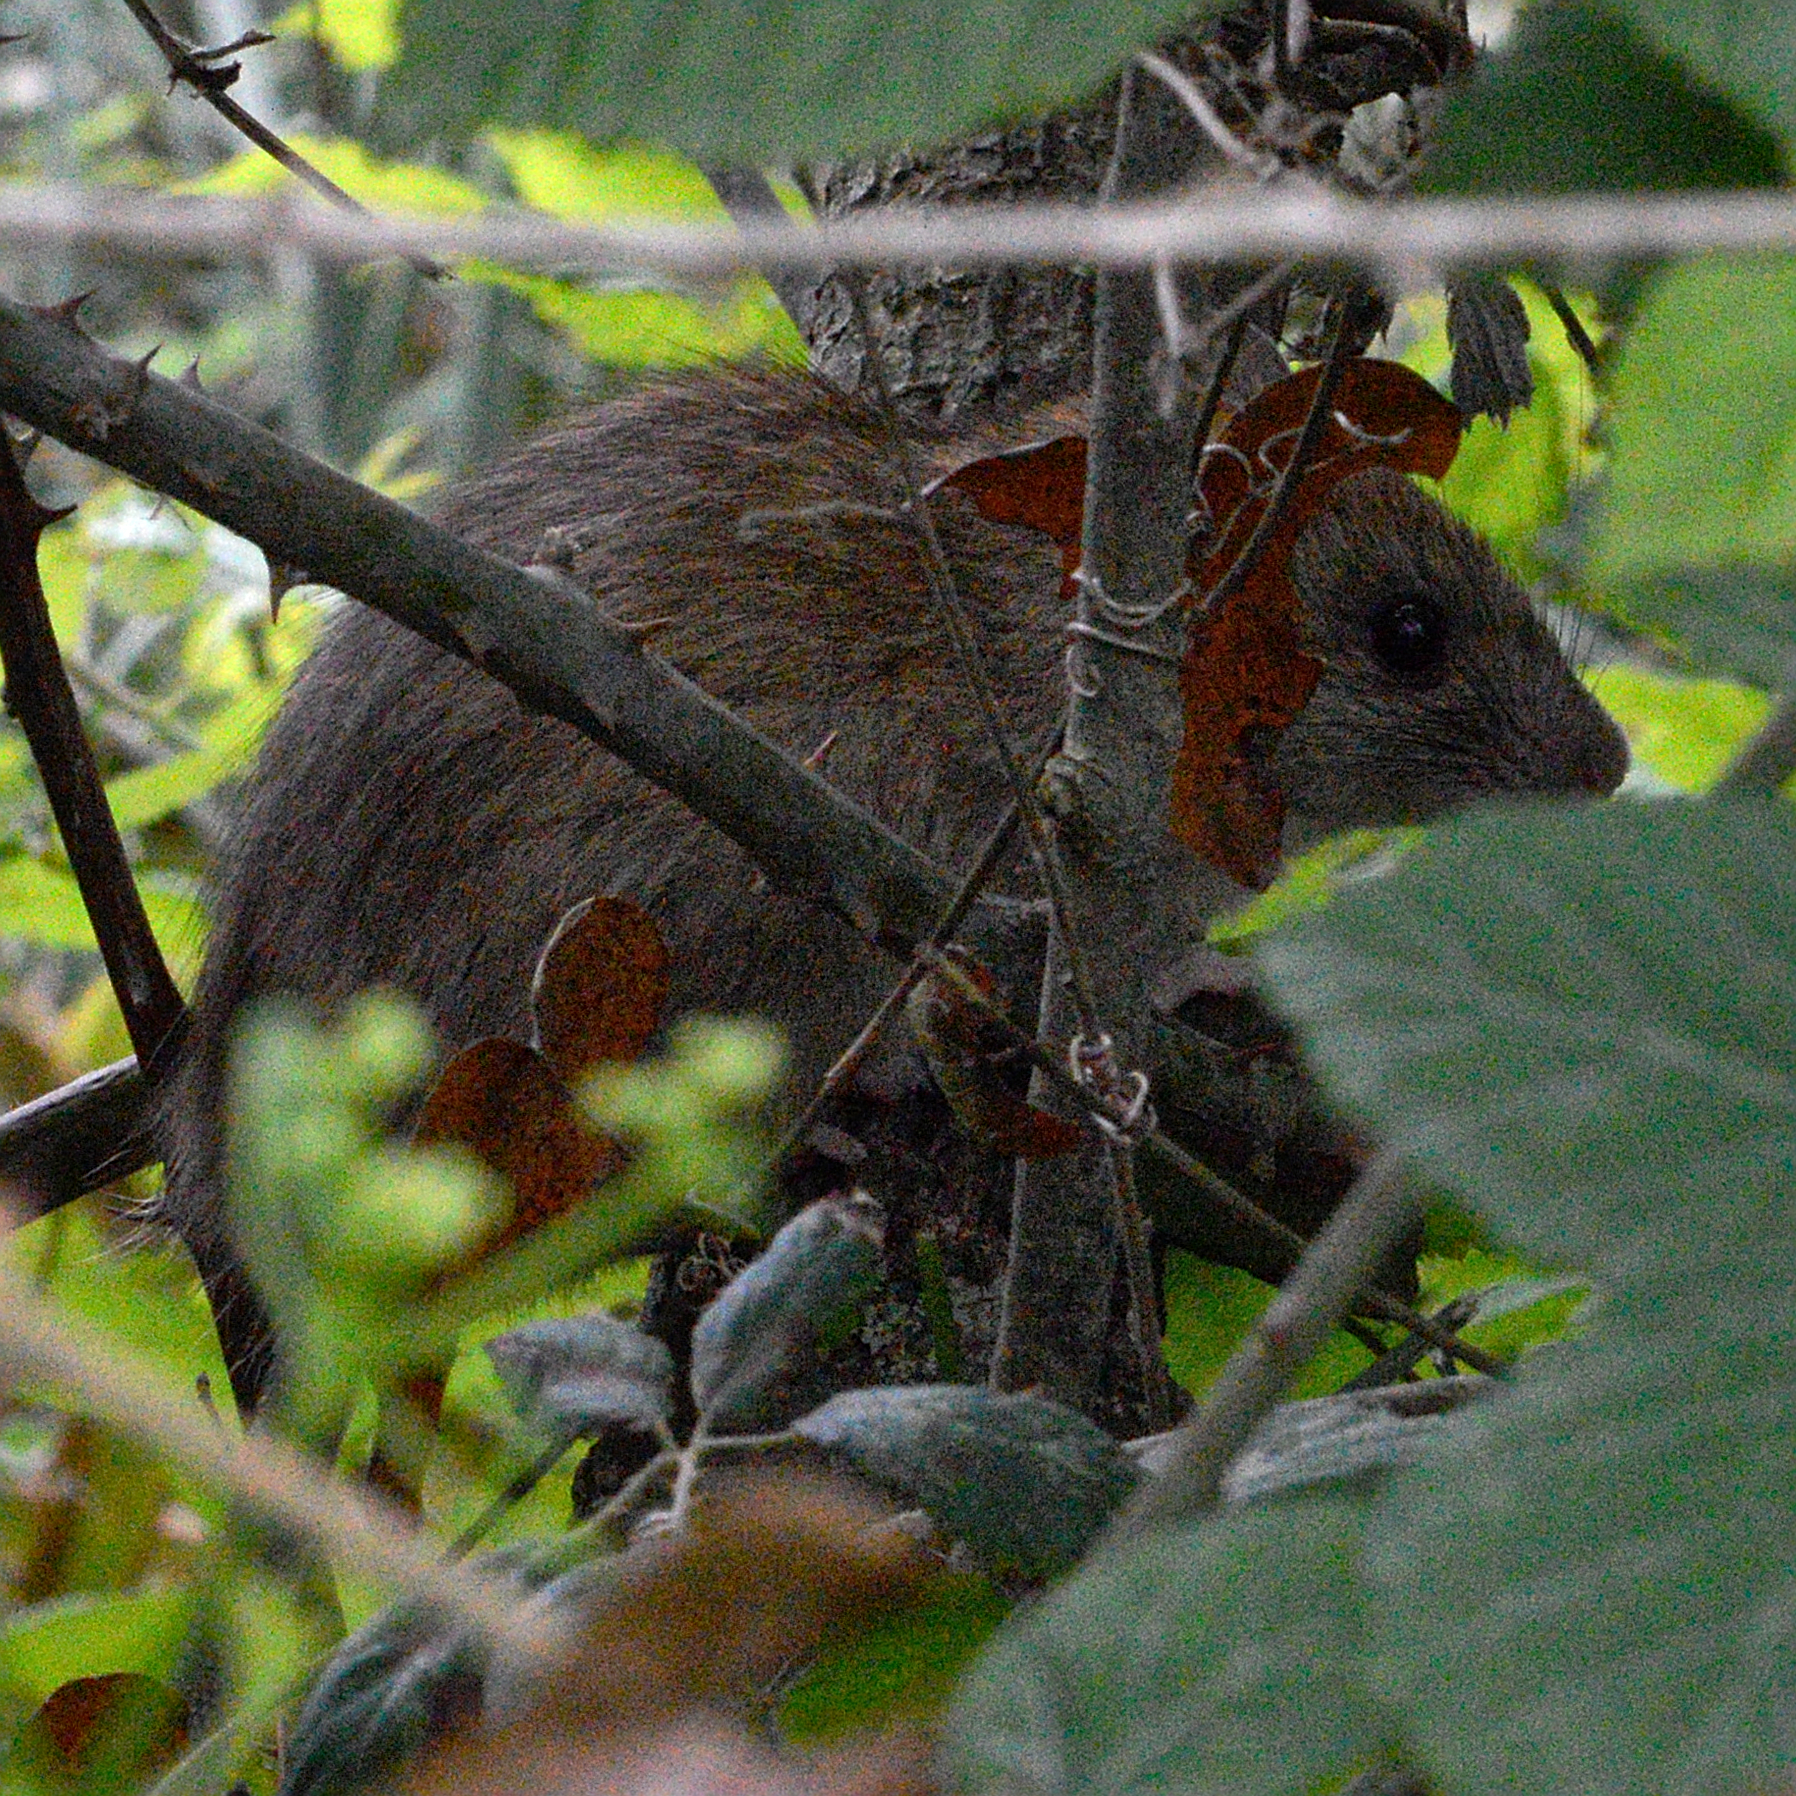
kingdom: Animalia
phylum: Chordata
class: Mammalia
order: Rodentia
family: Muridae
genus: Rattus
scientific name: Rattus rattus
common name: Black rat
